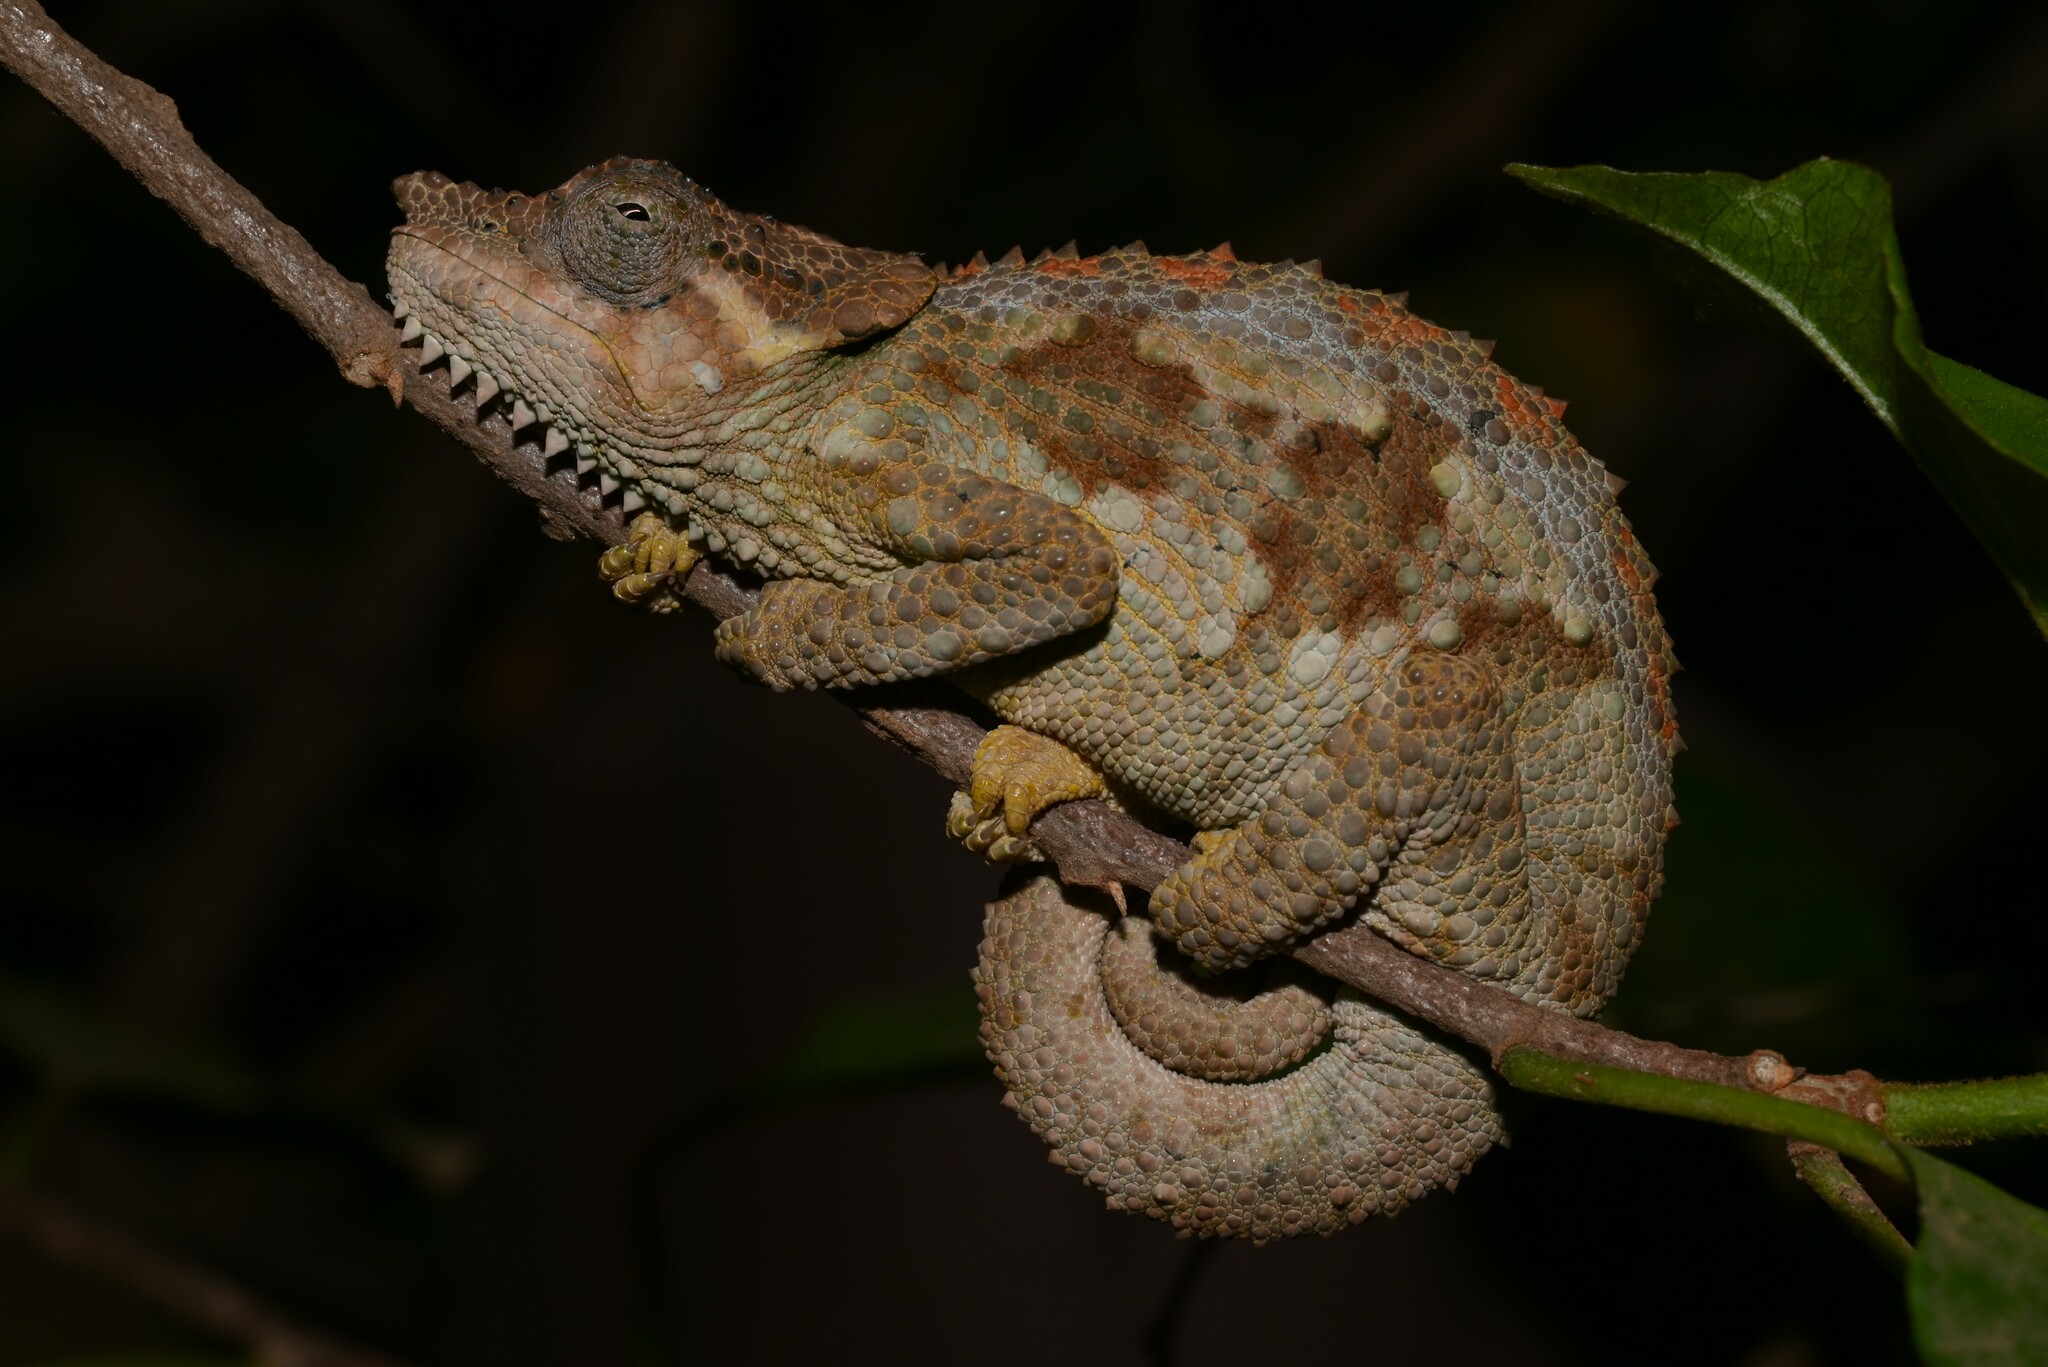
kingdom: Animalia
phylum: Chordata
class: Squamata
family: Chamaeleonidae
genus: Trioceros
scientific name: Trioceros tempeli
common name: Tanzania mountain chameleon
